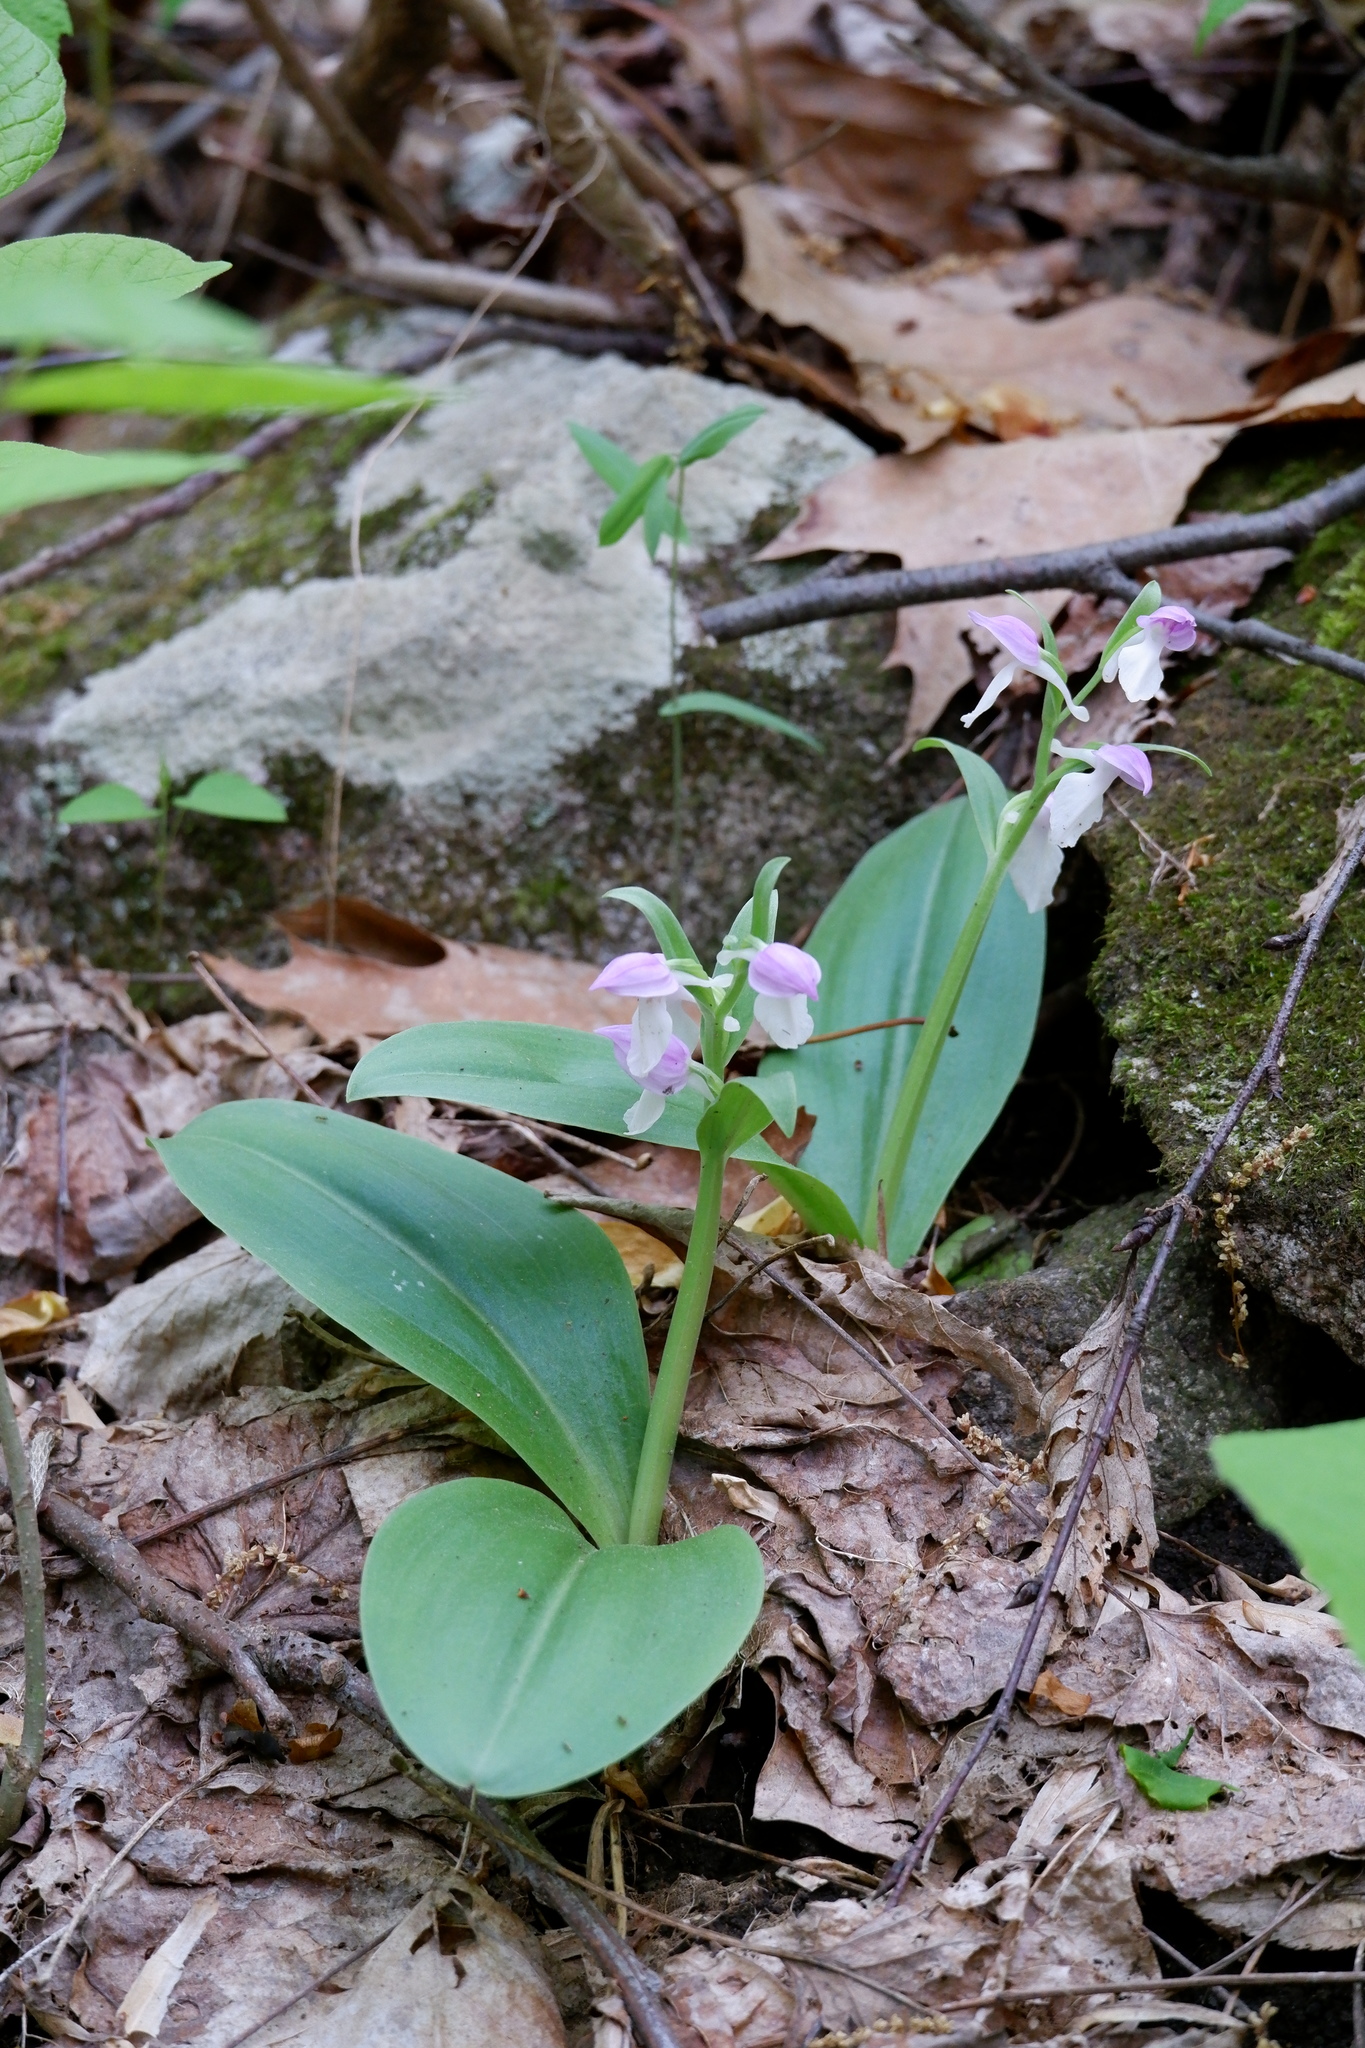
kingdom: Plantae
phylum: Tracheophyta
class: Liliopsida
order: Asparagales
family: Orchidaceae
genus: Galearis
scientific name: Galearis spectabilis
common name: Purple-hooded orchis
